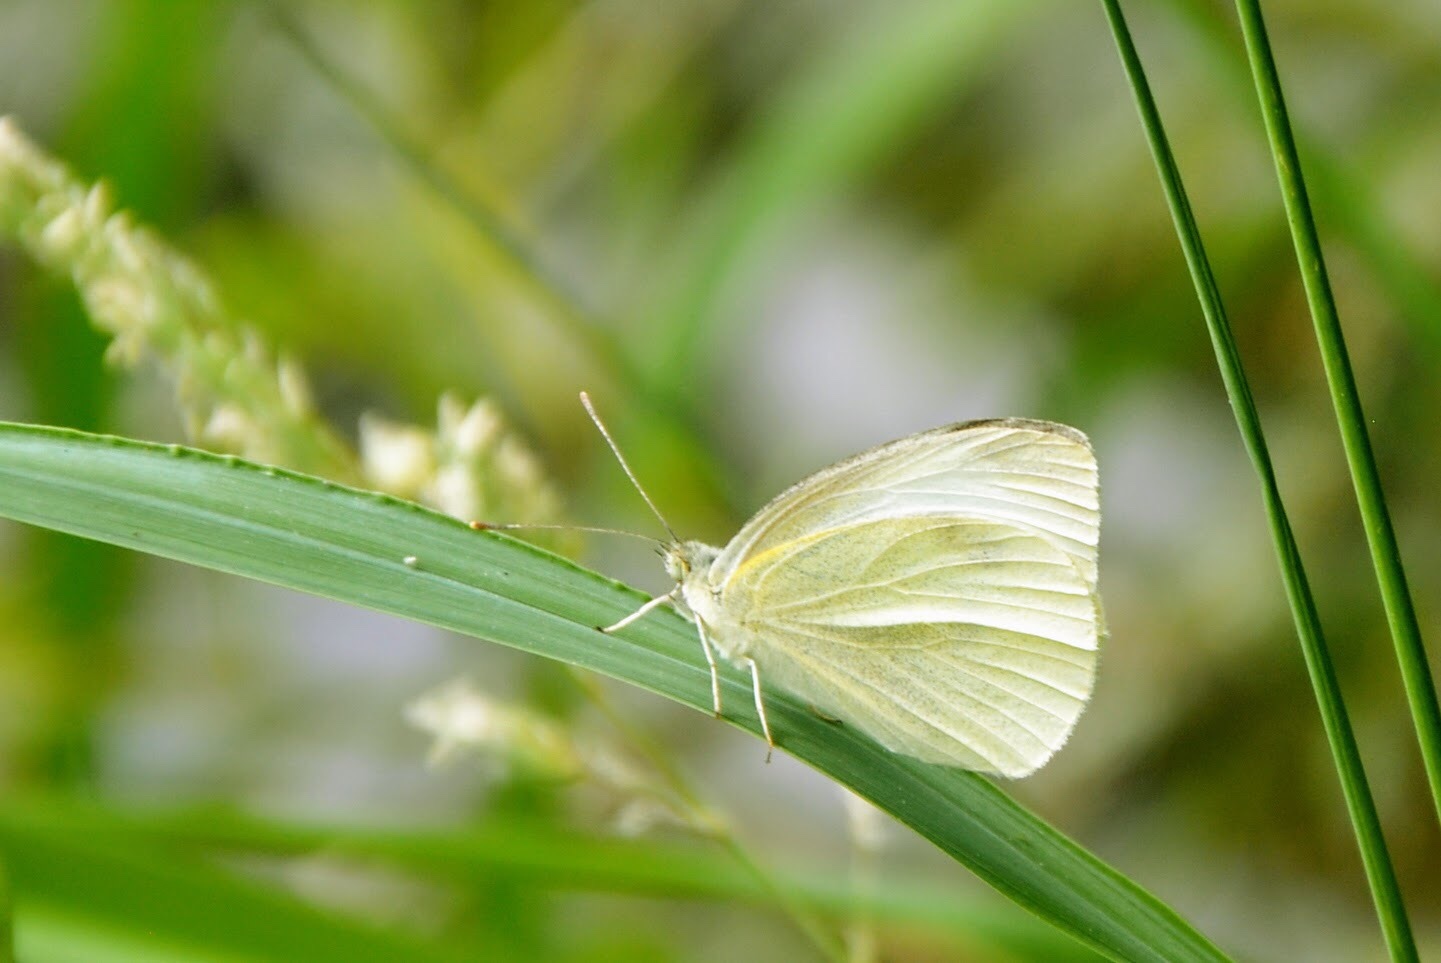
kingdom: Animalia
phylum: Arthropoda
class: Insecta
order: Lepidoptera
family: Pieridae
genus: Pieris
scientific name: Pieris rapae
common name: Small white
